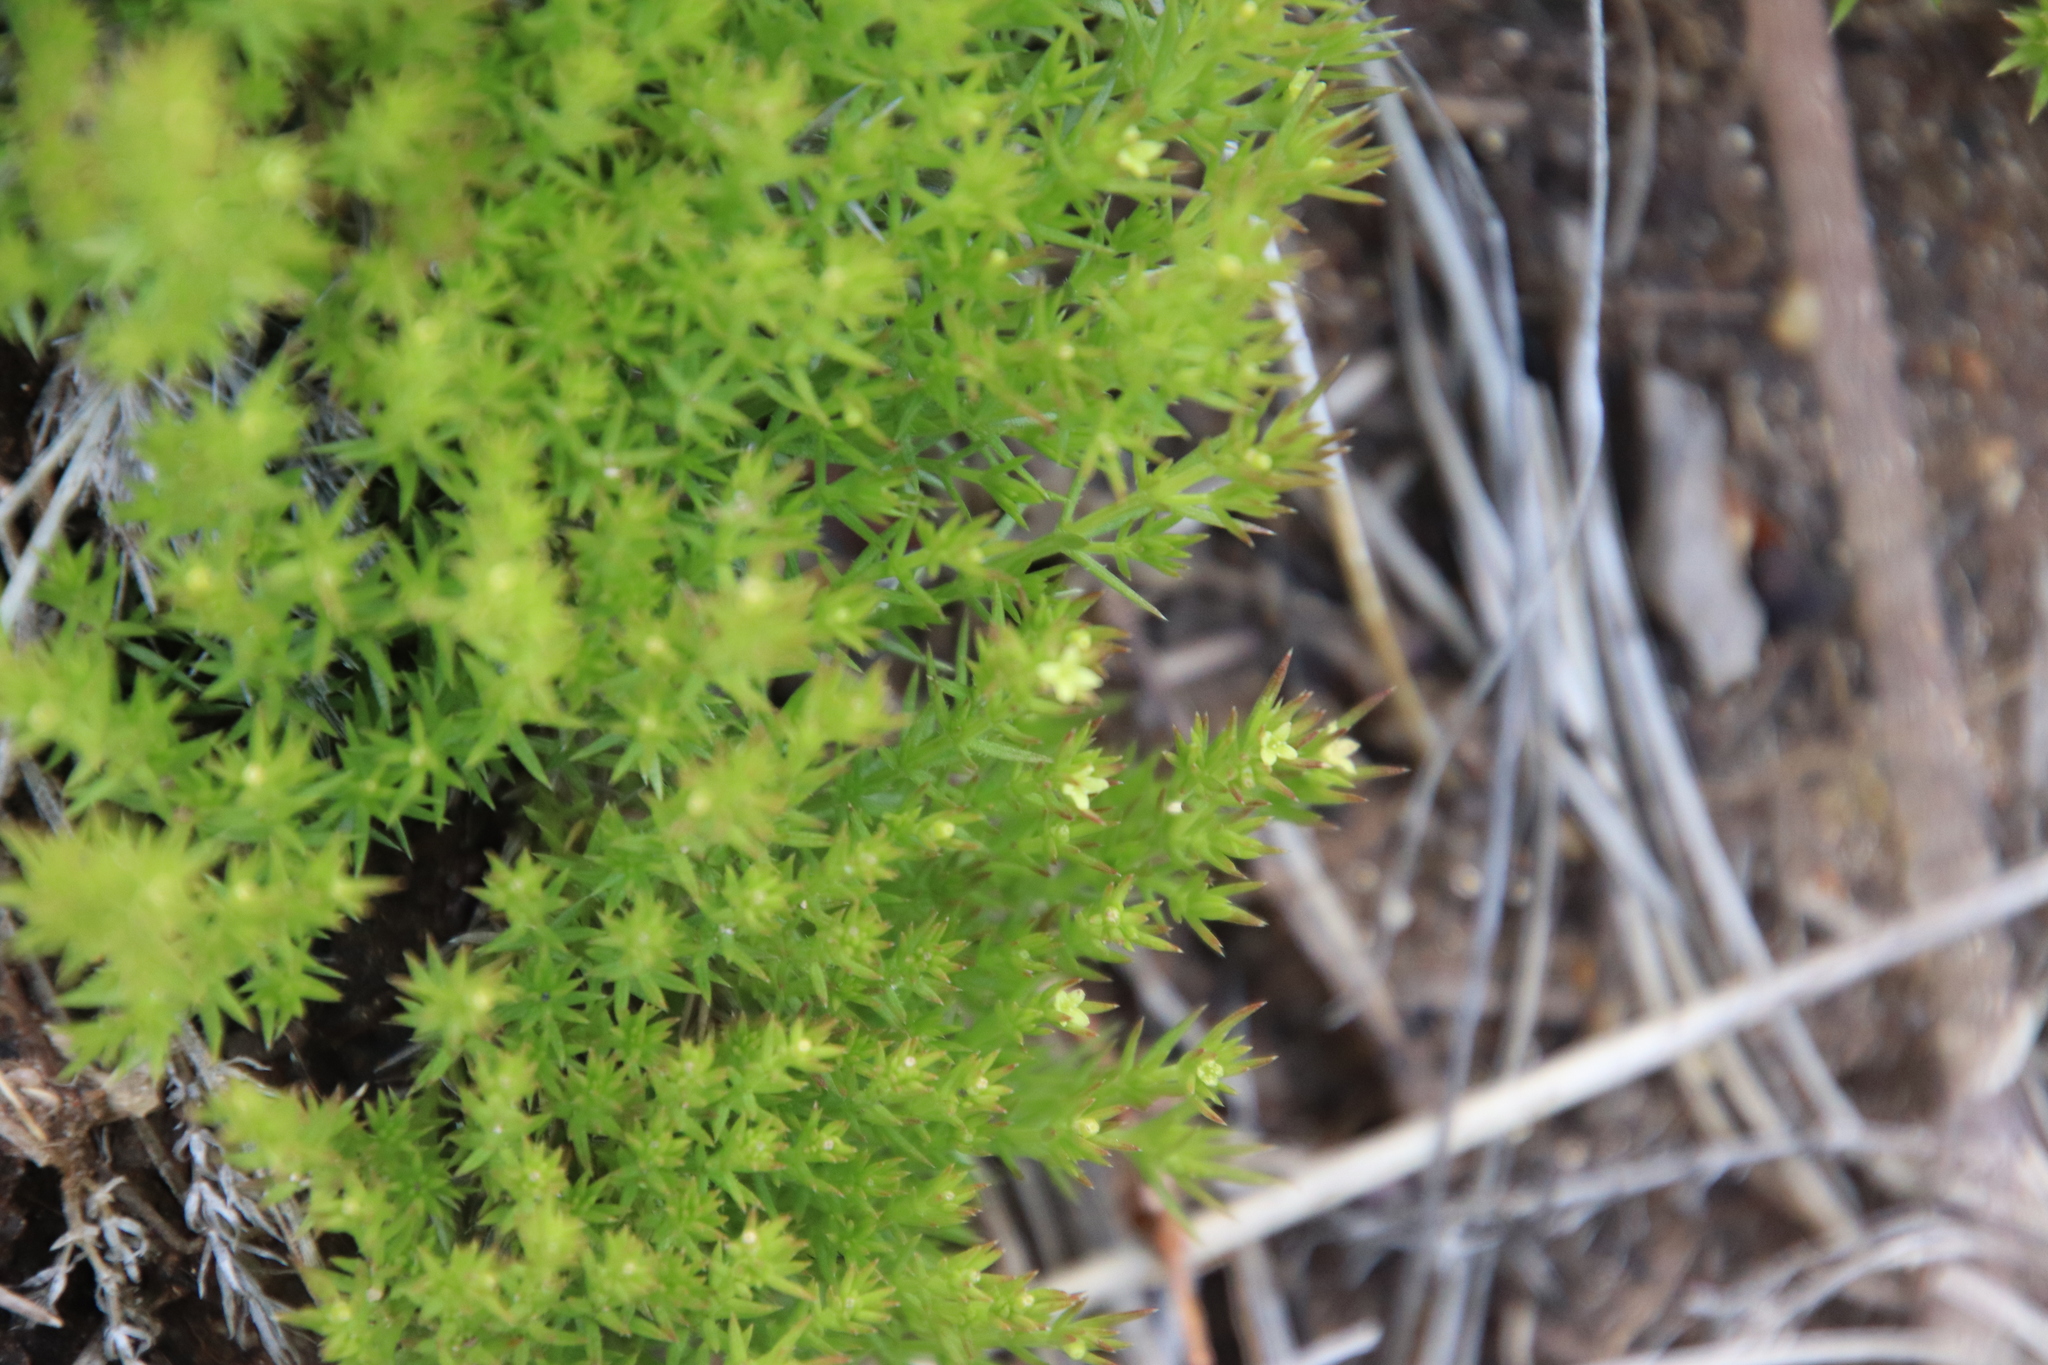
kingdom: Plantae
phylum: Tracheophyta
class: Magnoliopsida
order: Gentianales
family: Rubiaceae
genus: Galium
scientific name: Galium andrewsii
